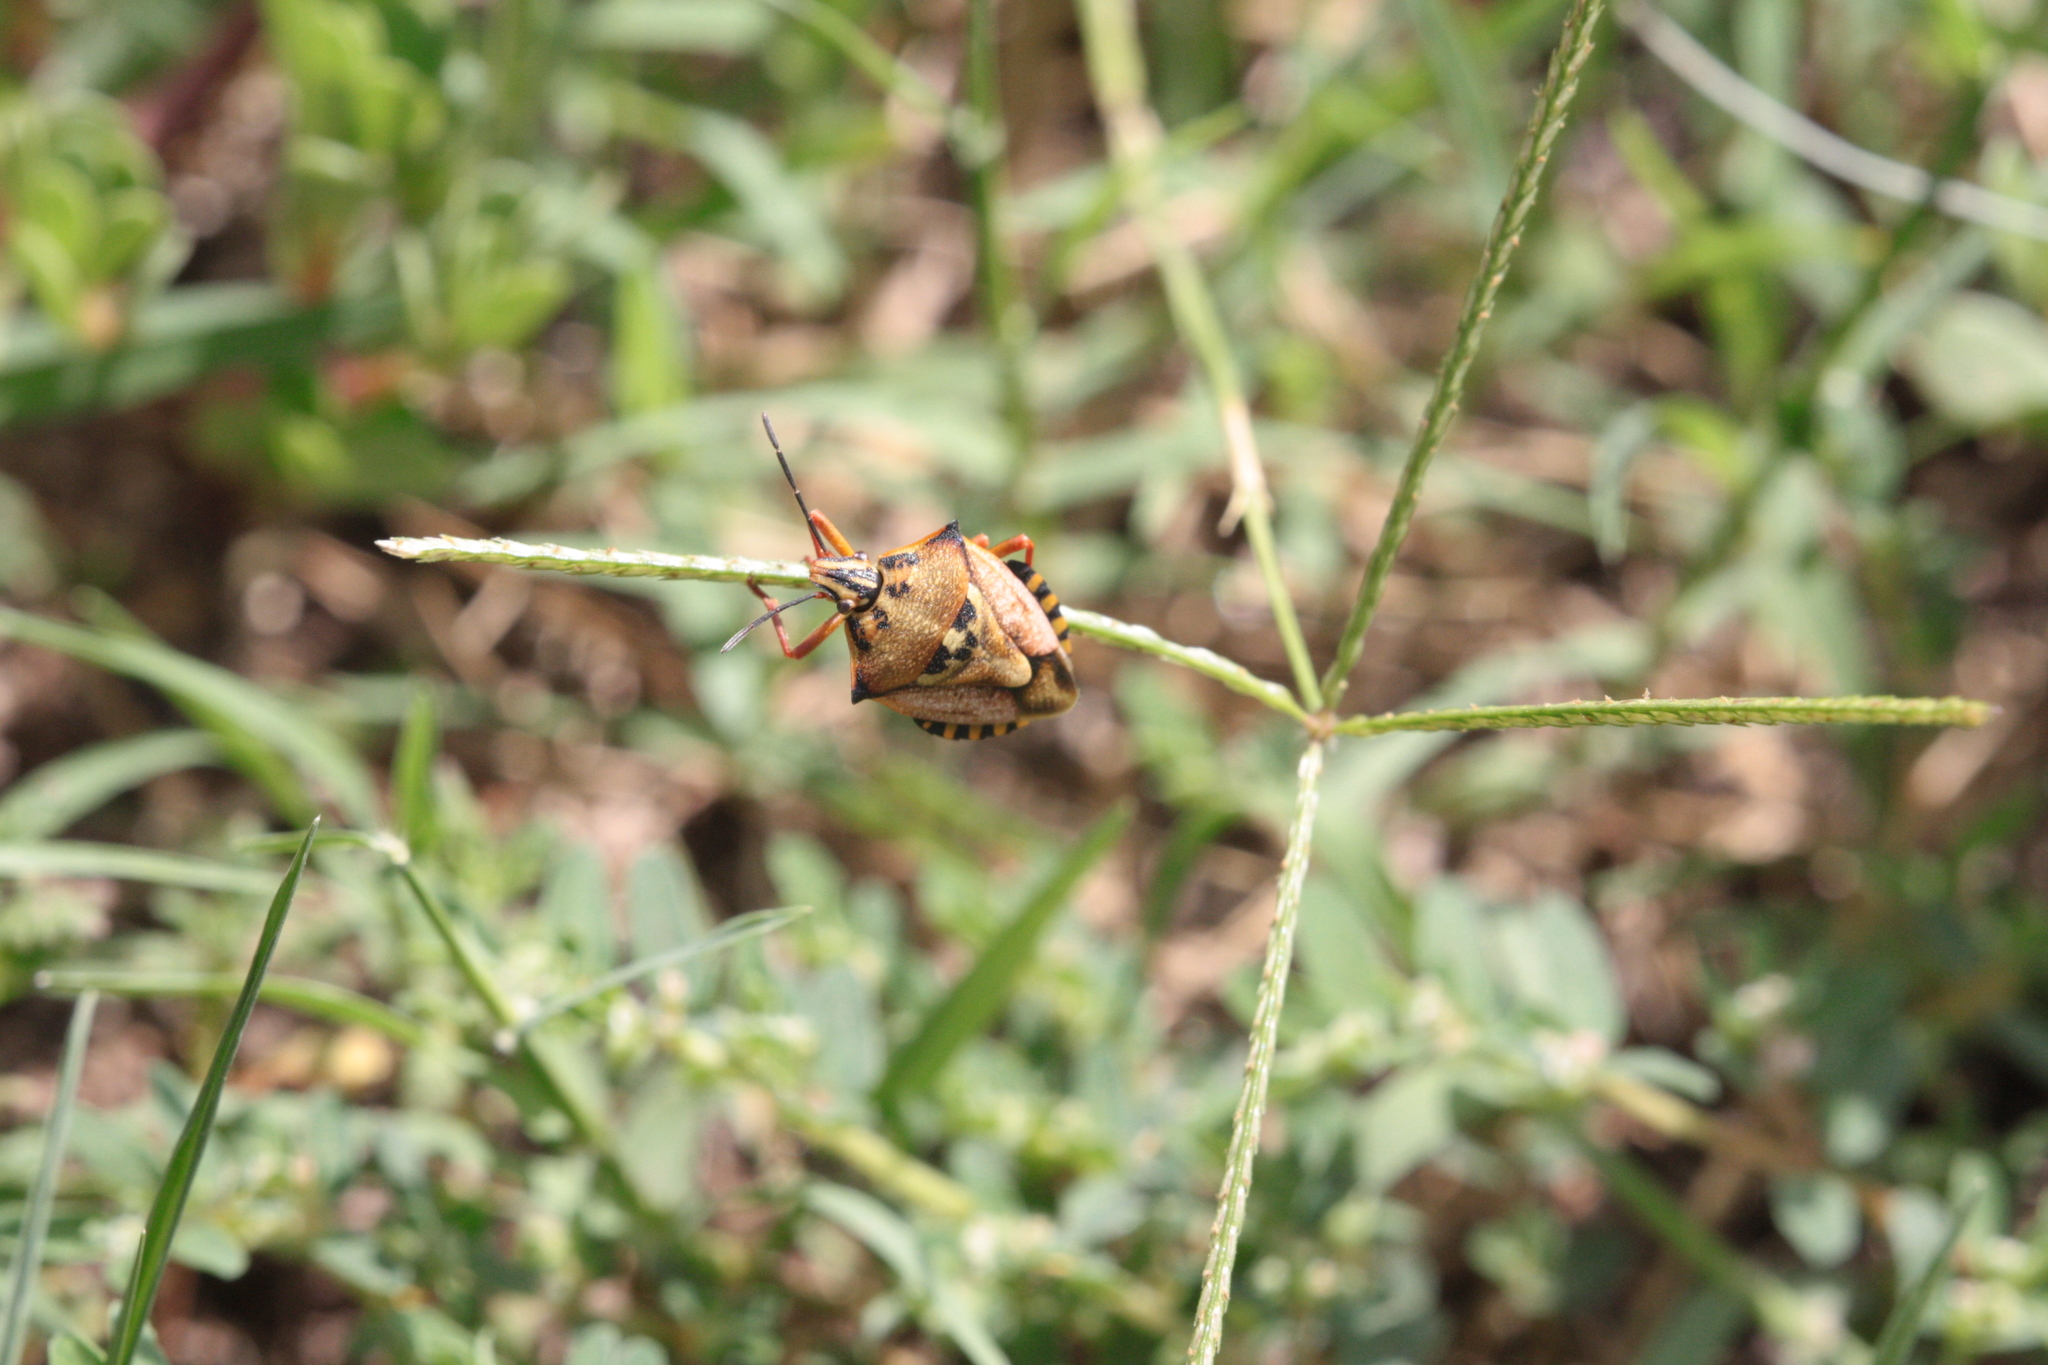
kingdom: Animalia
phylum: Arthropoda
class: Insecta
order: Hemiptera
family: Pentatomidae
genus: Carpocoris
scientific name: Carpocoris mediterraneus
